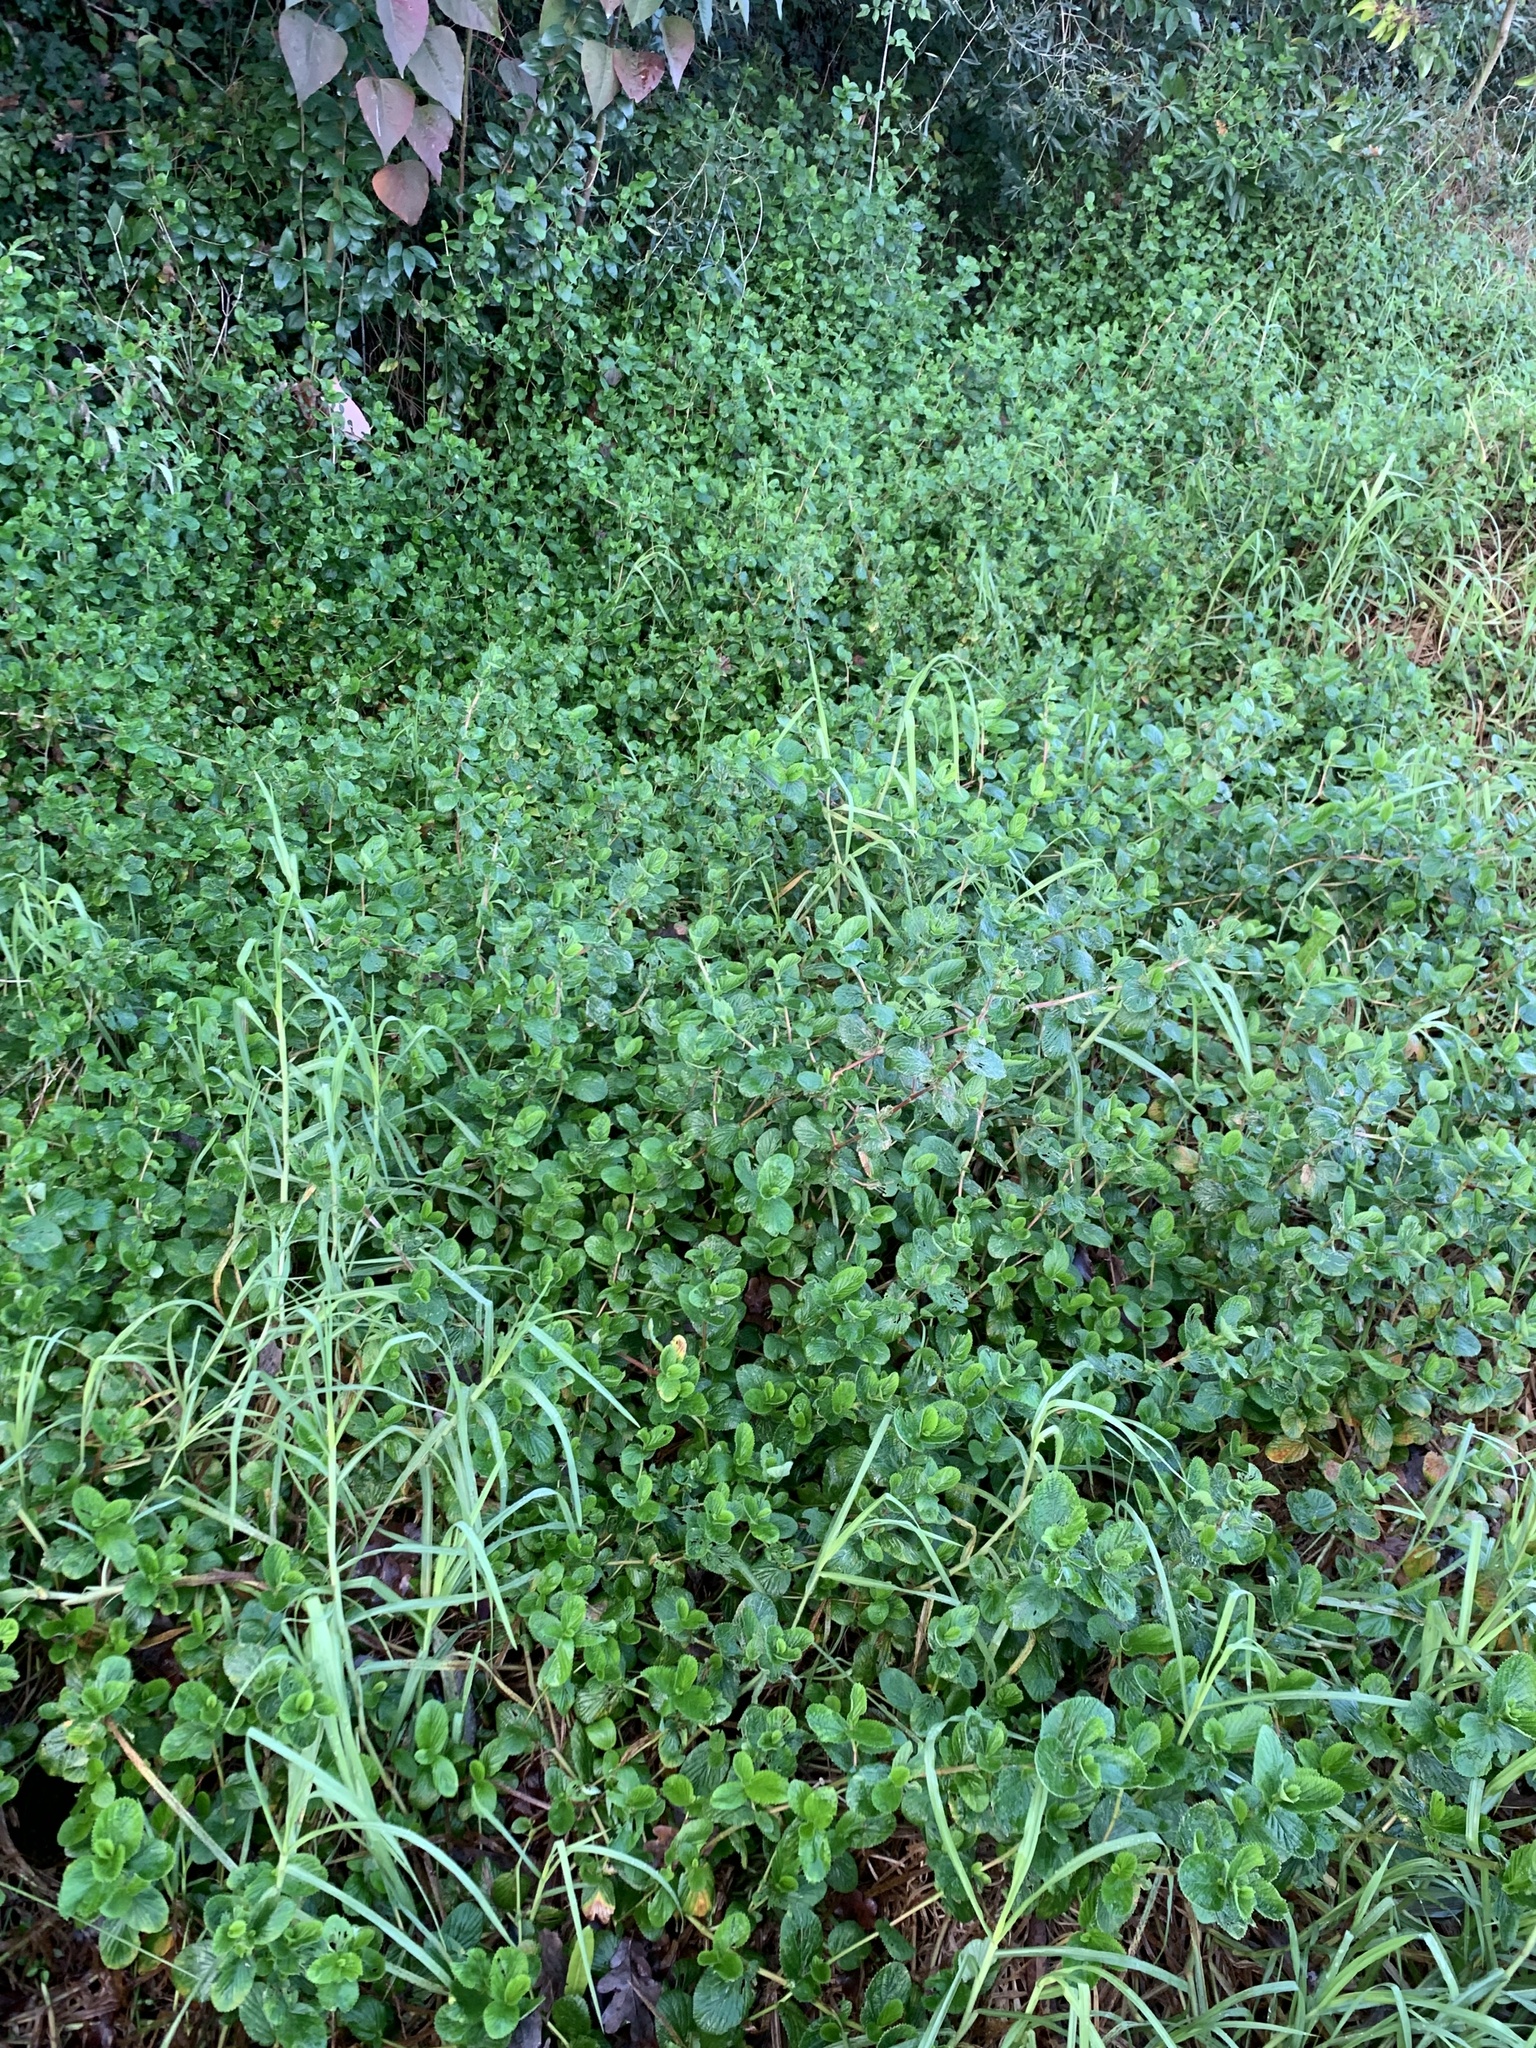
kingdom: Plantae
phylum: Tracheophyta
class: Magnoliopsida
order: Rosales
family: Rosaceae
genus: Cliffortia
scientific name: Cliffortia odorata
